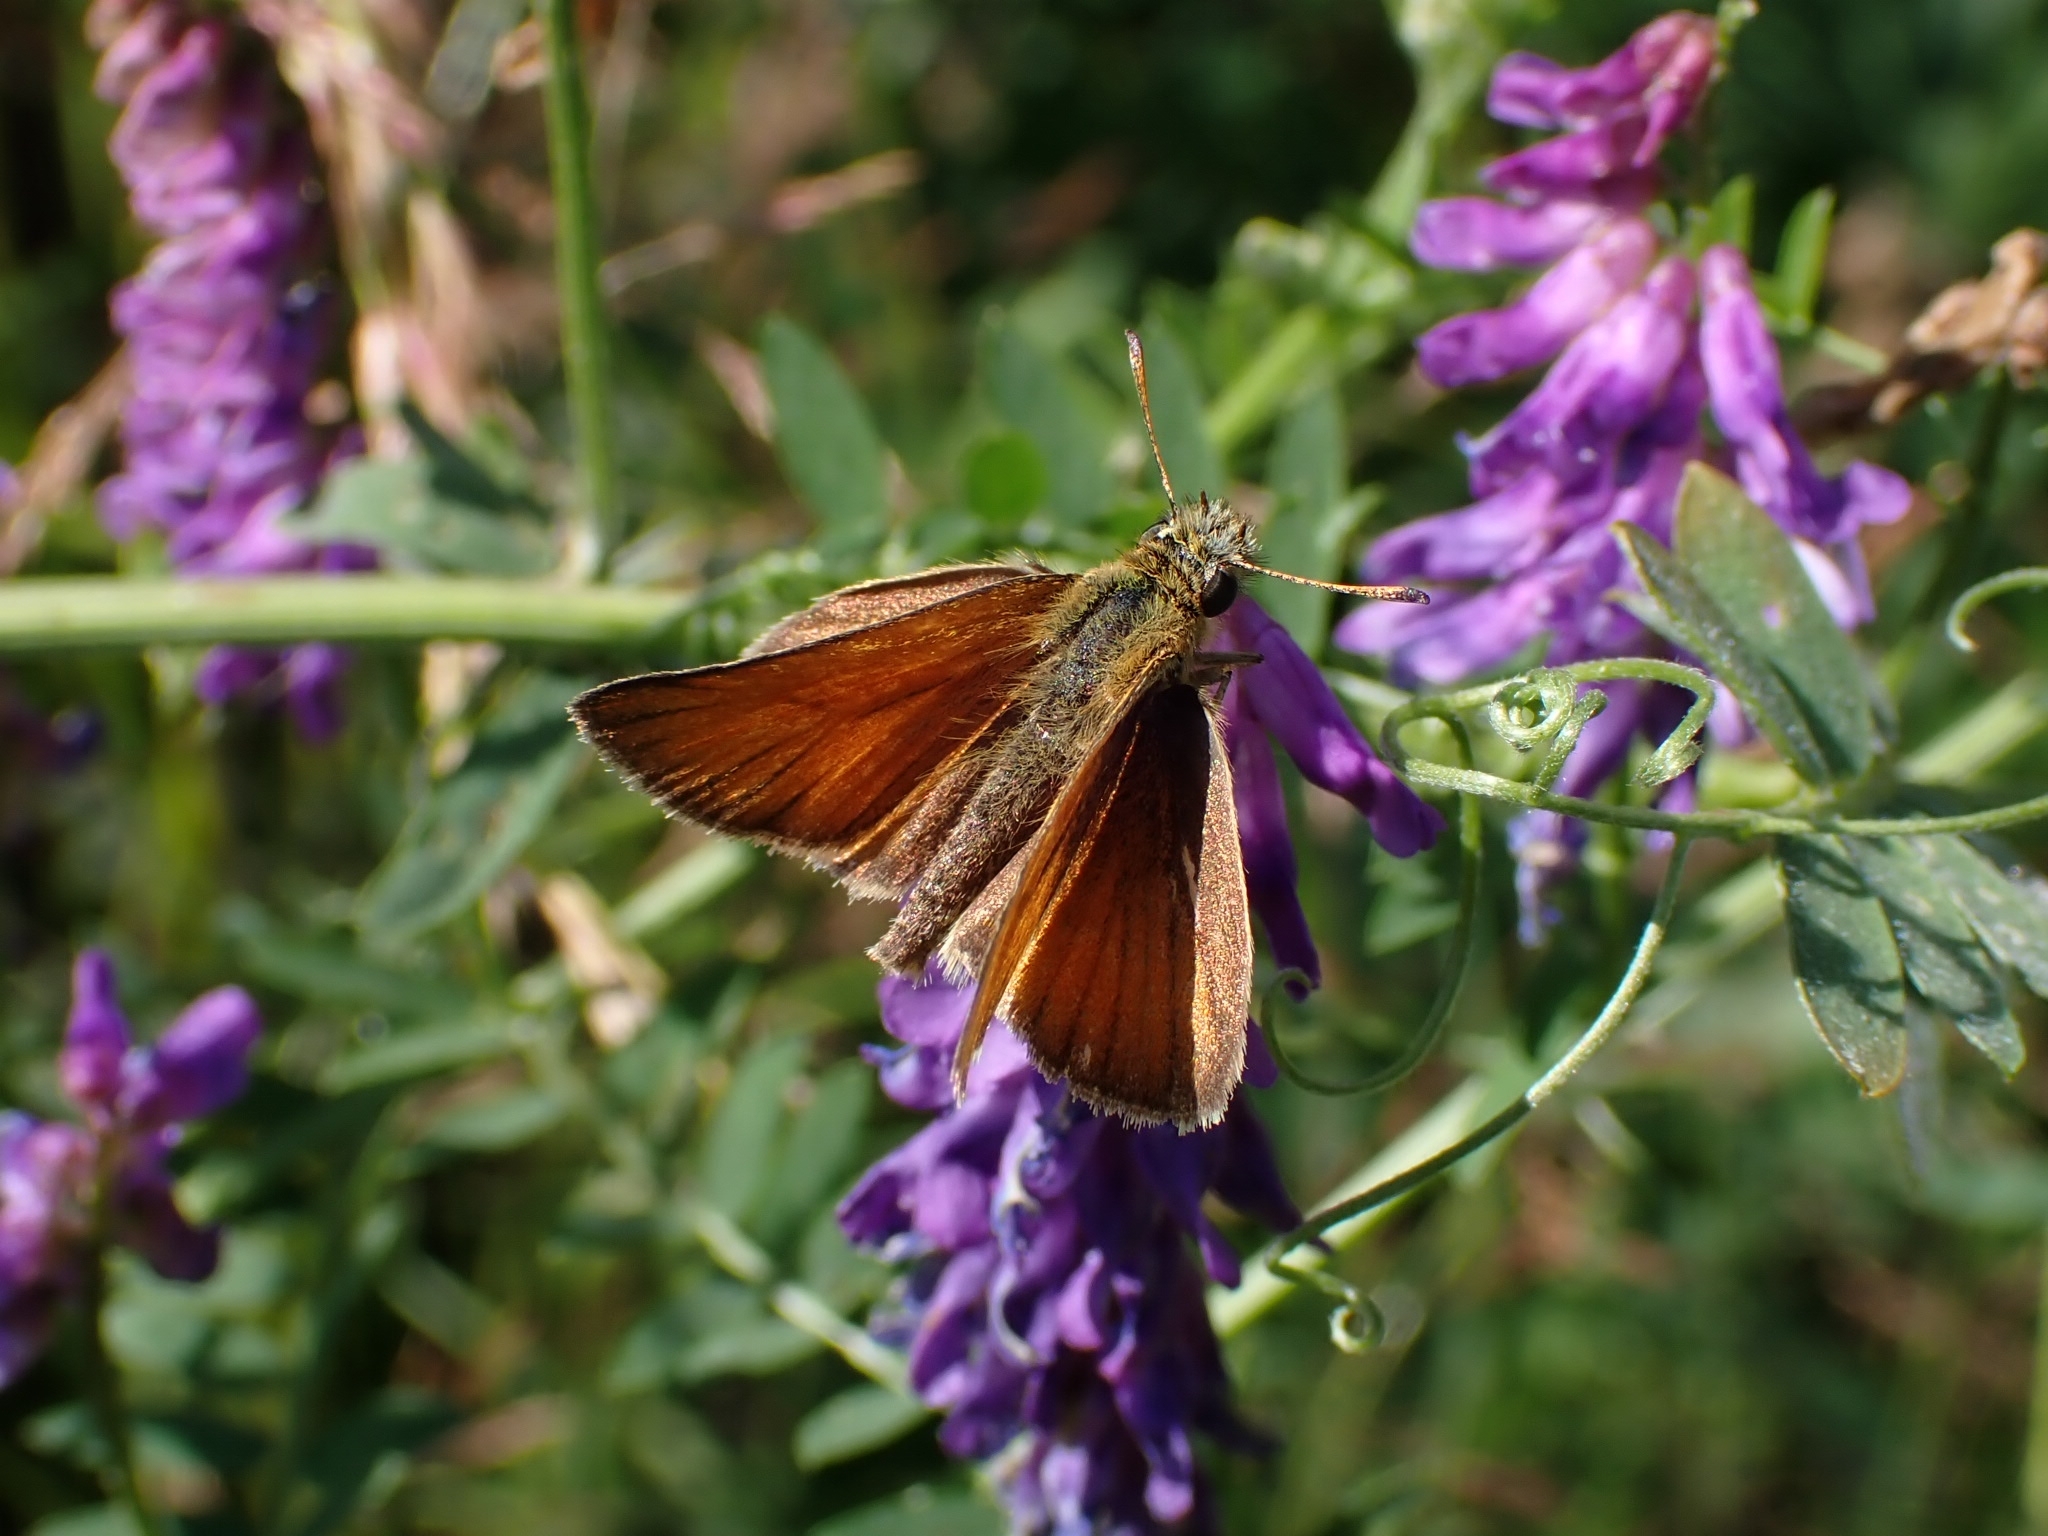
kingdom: Animalia
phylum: Arthropoda
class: Insecta
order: Lepidoptera
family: Hesperiidae
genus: Thymelicus
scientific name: Thymelicus lineola
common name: Essex skipper
